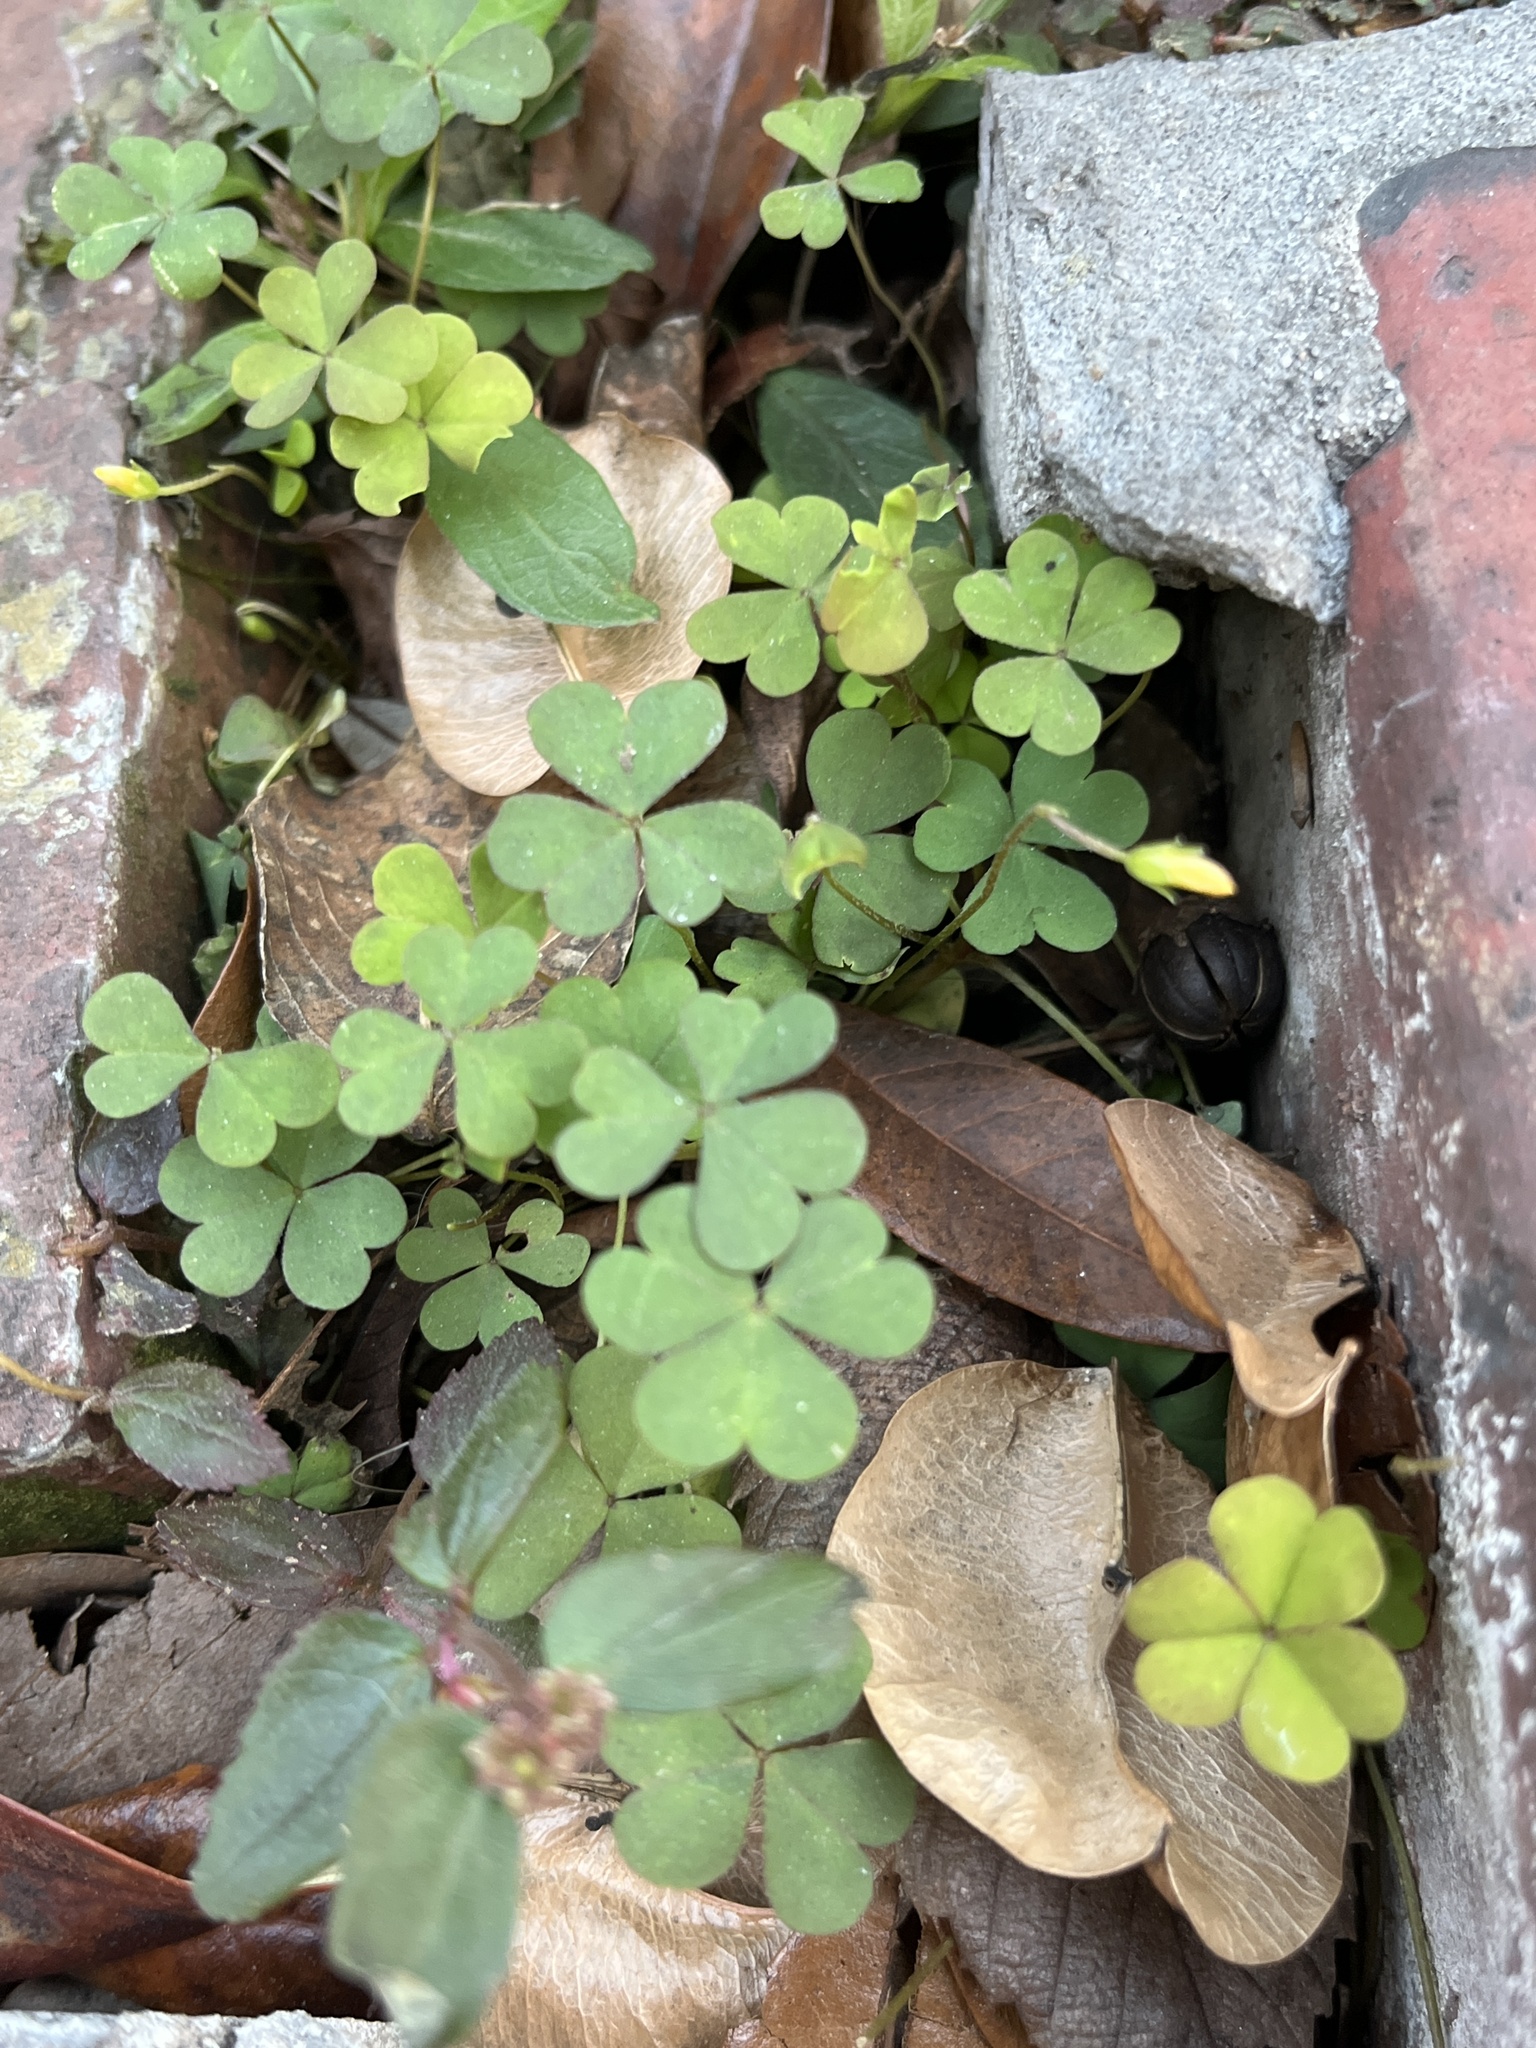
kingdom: Plantae
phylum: Tracheophyta
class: Magnoliopsida
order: Oxalidales
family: Oxalidaceae
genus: Oxalis
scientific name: Oxalis corniculata
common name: Procumbent yellow-sorrel
